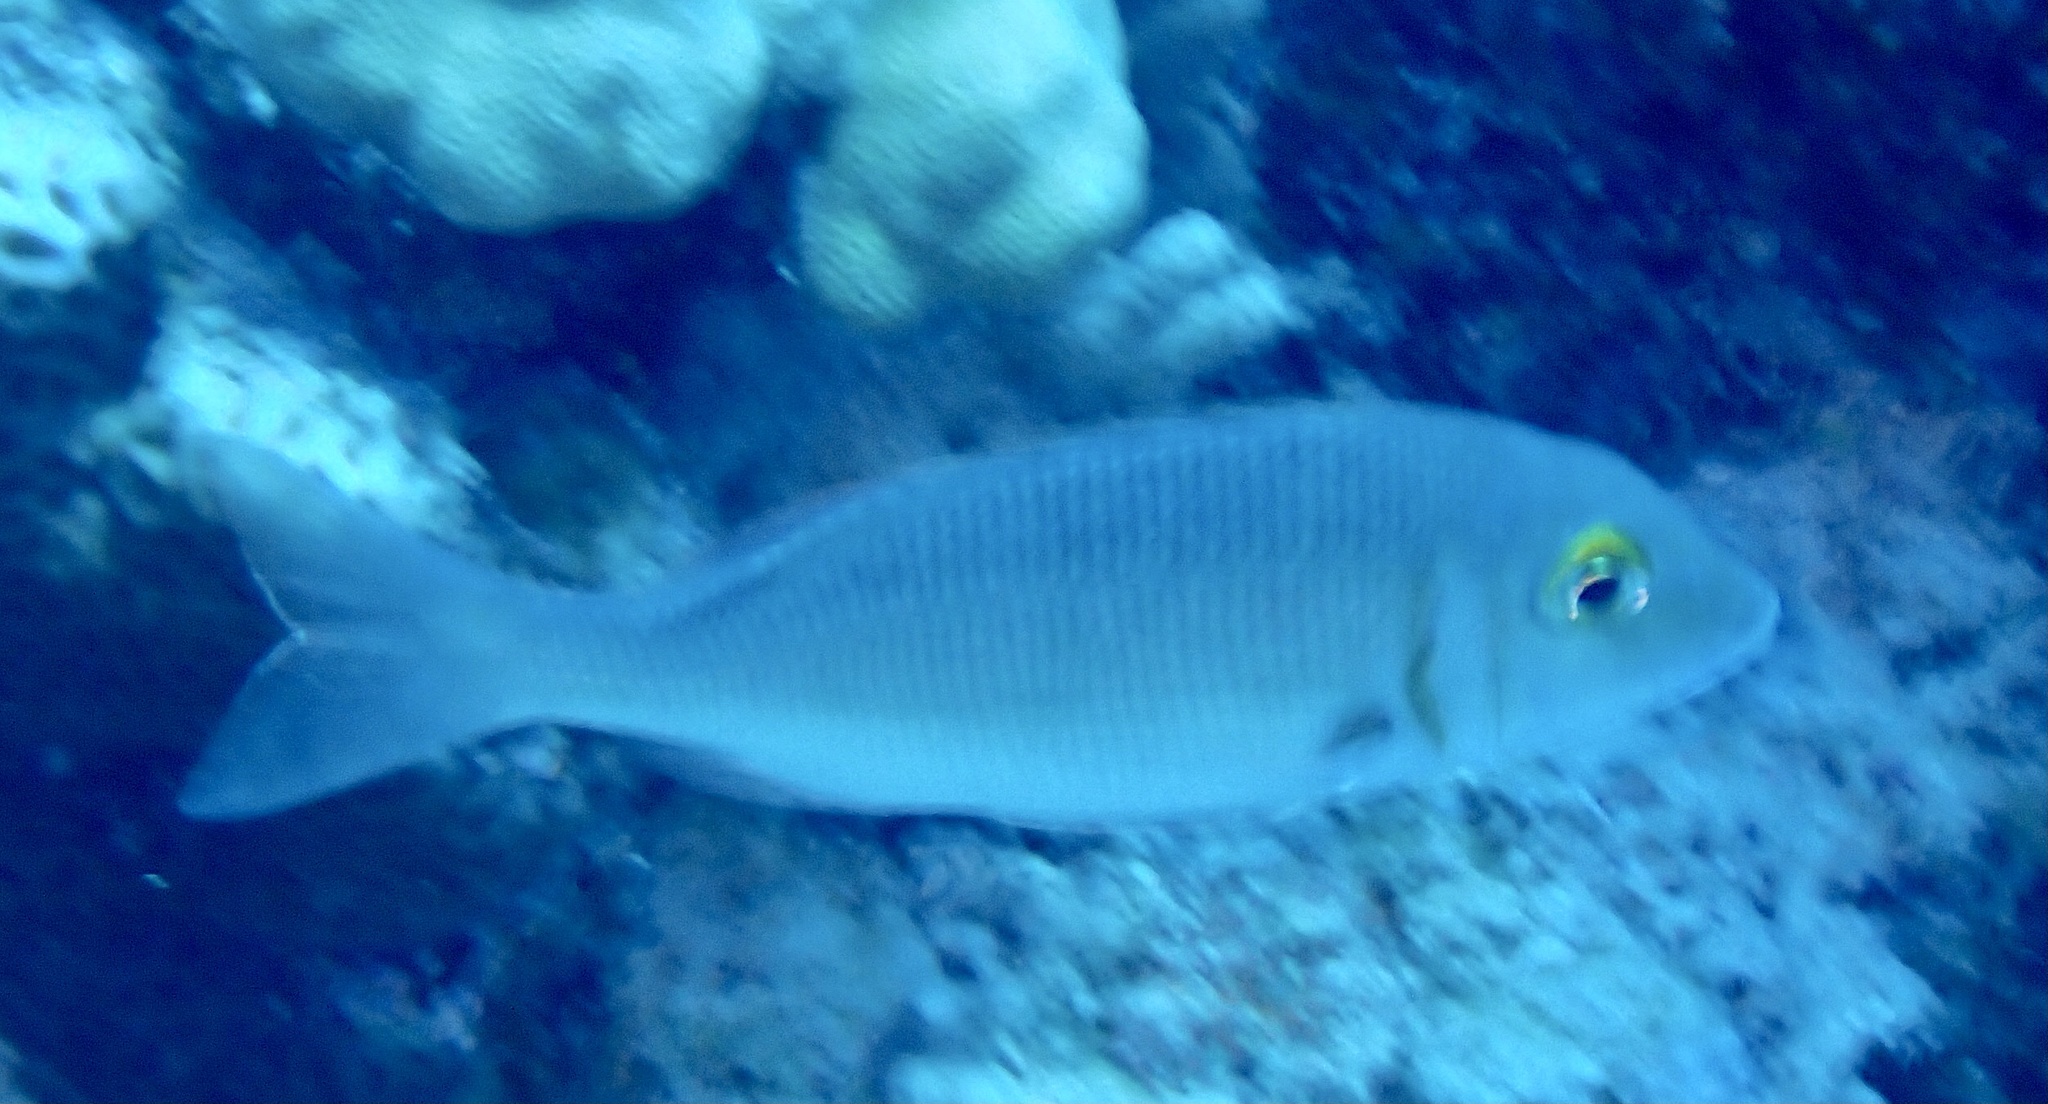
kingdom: Animalia
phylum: Chordata
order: Perciformes
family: Lethrinidae
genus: Lethrinus
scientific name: Lethrinus borbonicus
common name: Snubnose emperor
